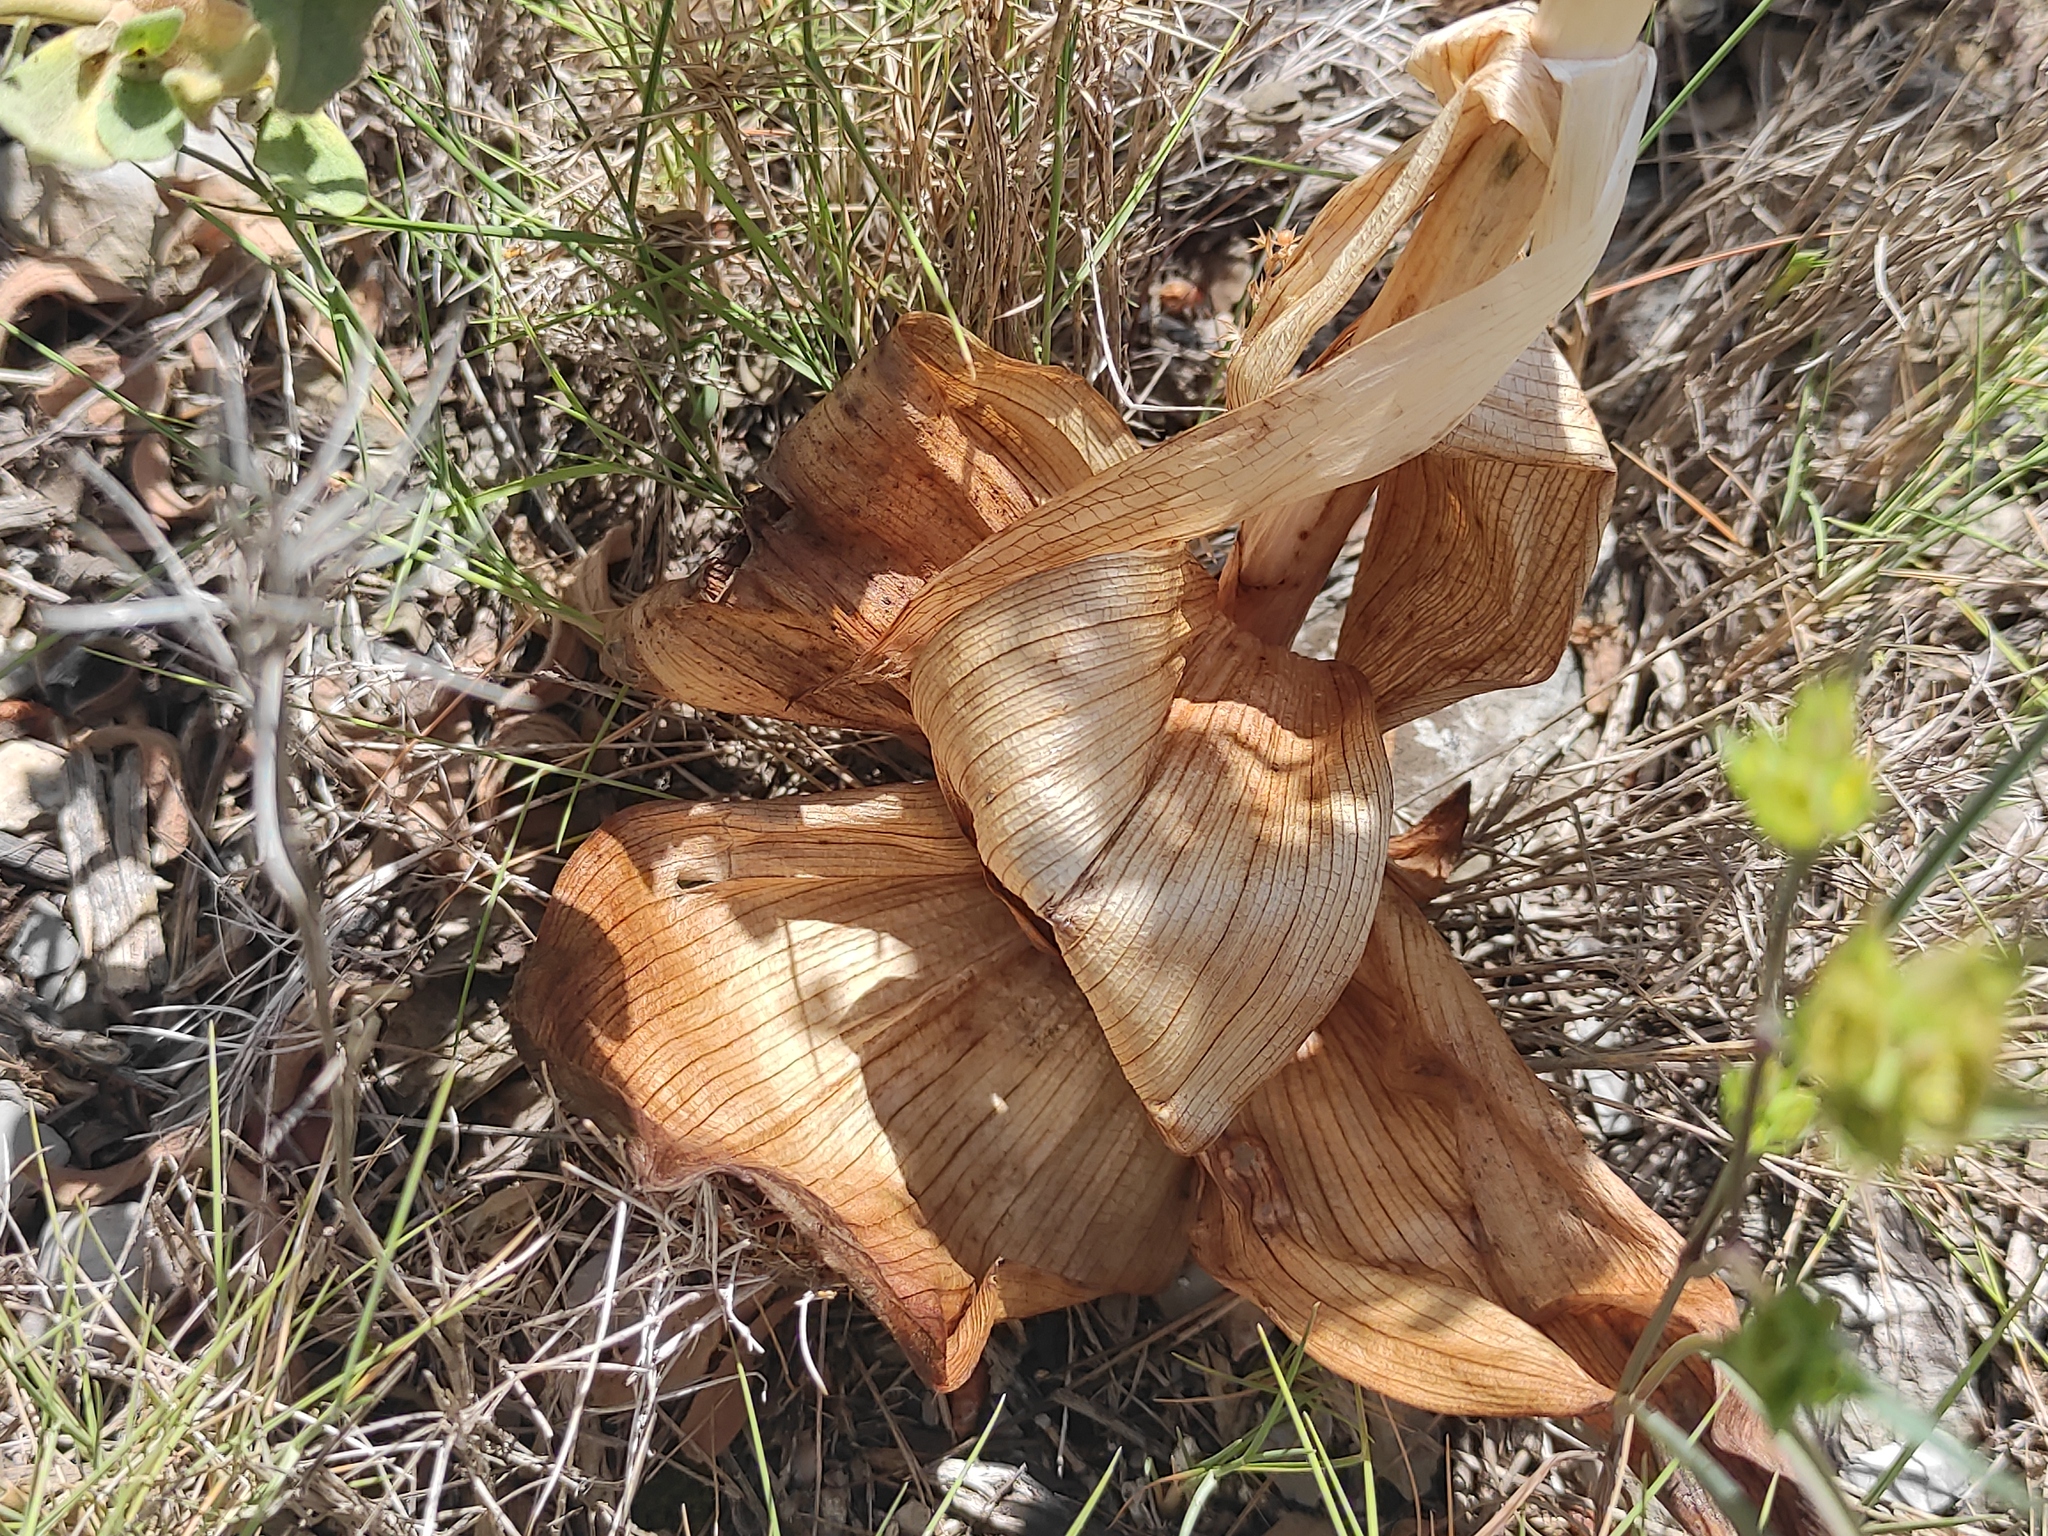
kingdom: Plantae
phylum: Tracheophyta
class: Liliopsida
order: Asparagales
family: Orchidaceae
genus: Himantoglossum
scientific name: Himantoglossum robertianum
